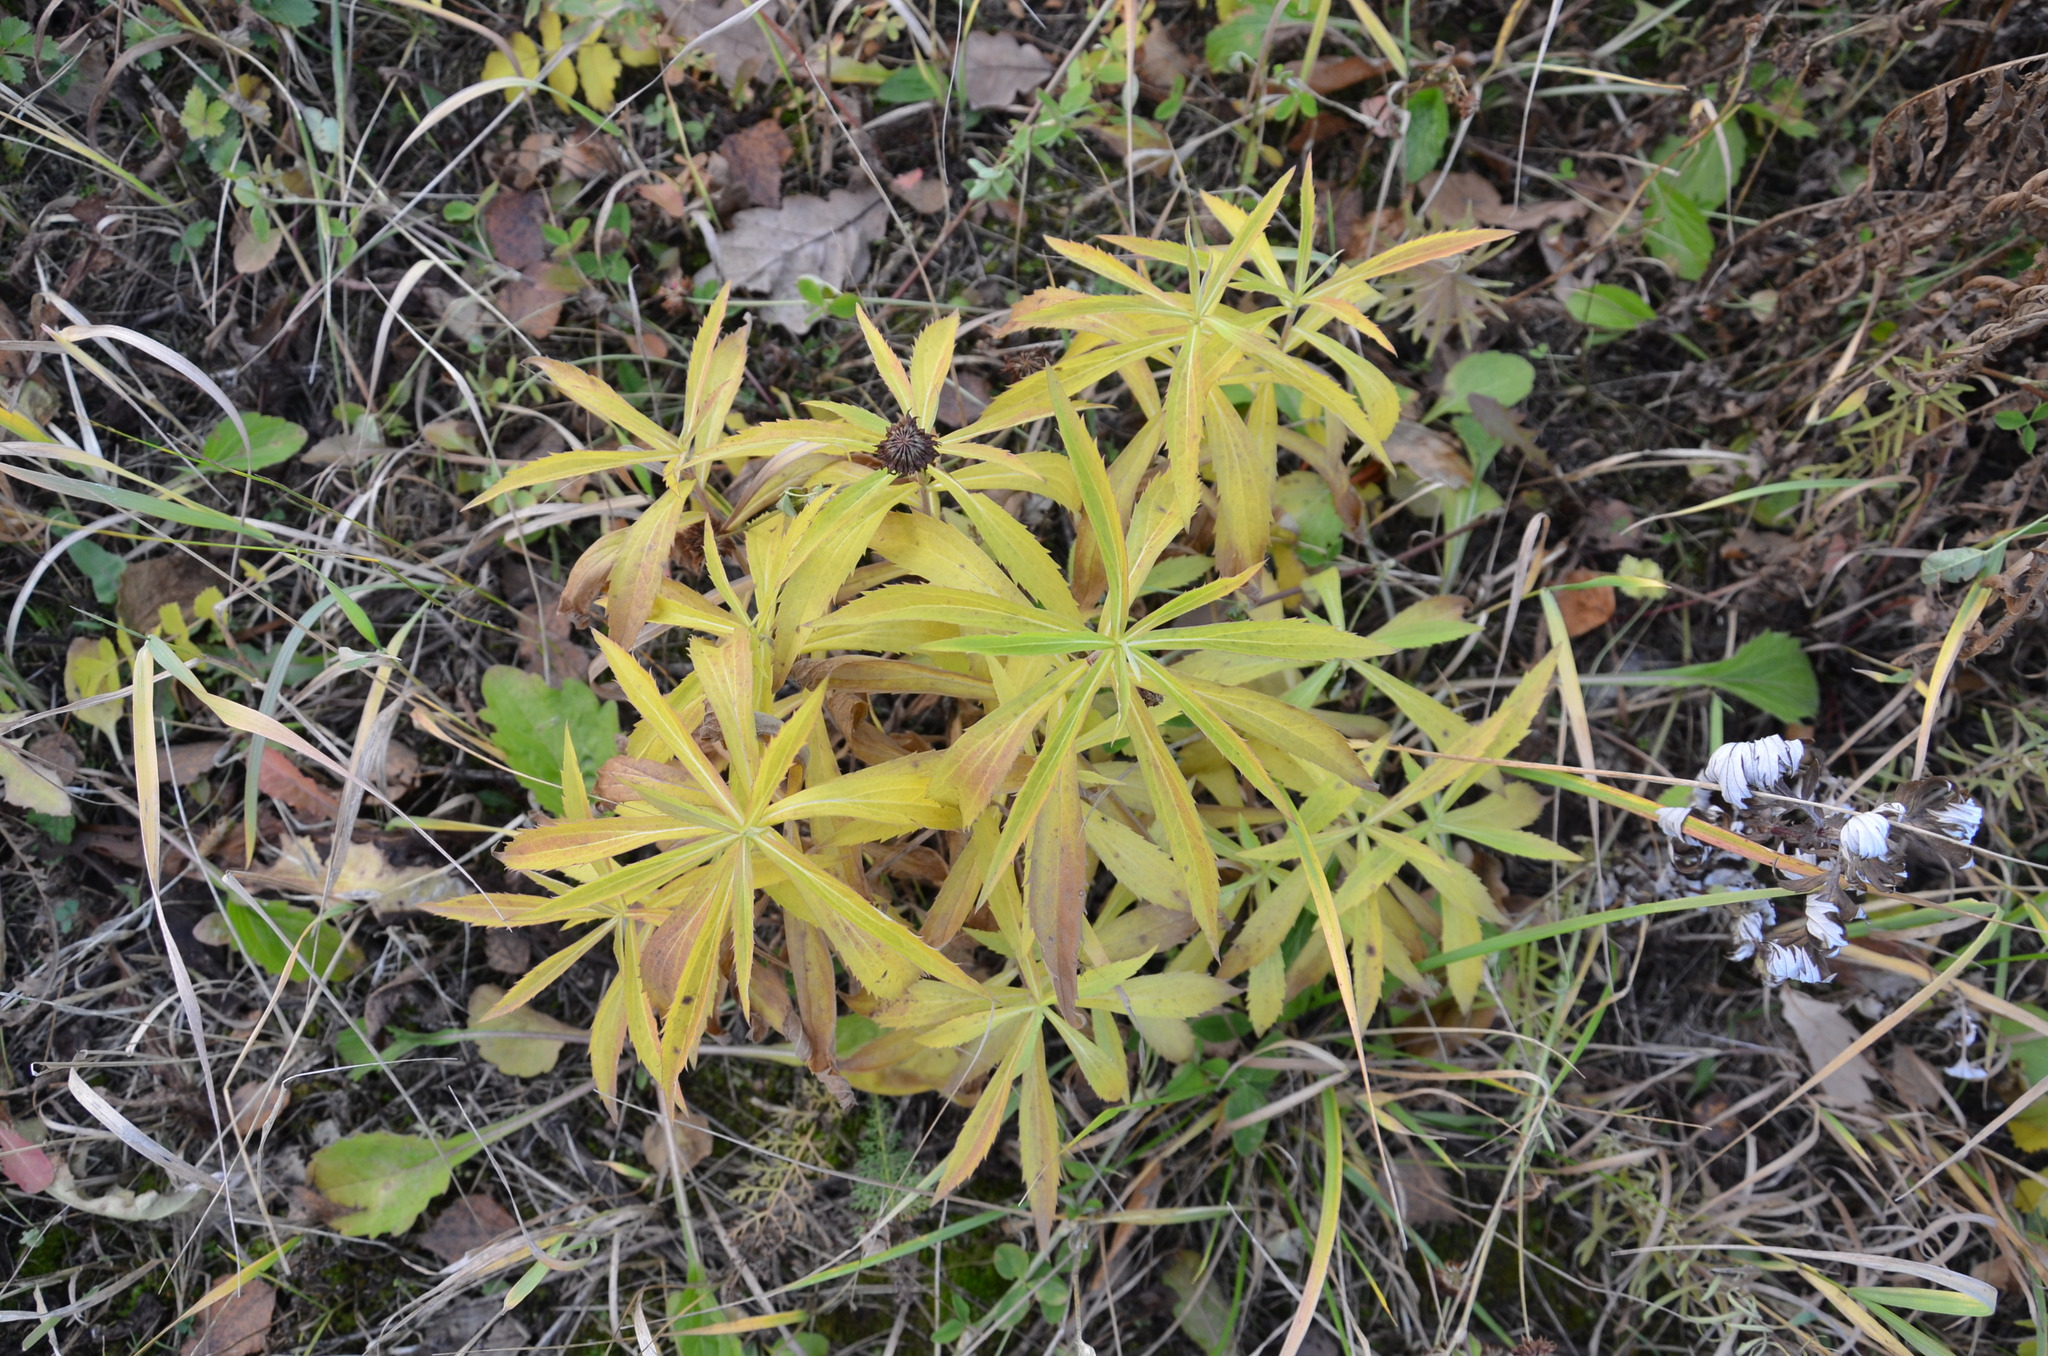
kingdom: Plantae
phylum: Tracheophyta
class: Magnoliopsida
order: Asterales
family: Asteraceae
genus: Solidago
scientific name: Solidago canadensis
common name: Canada goldenrod
